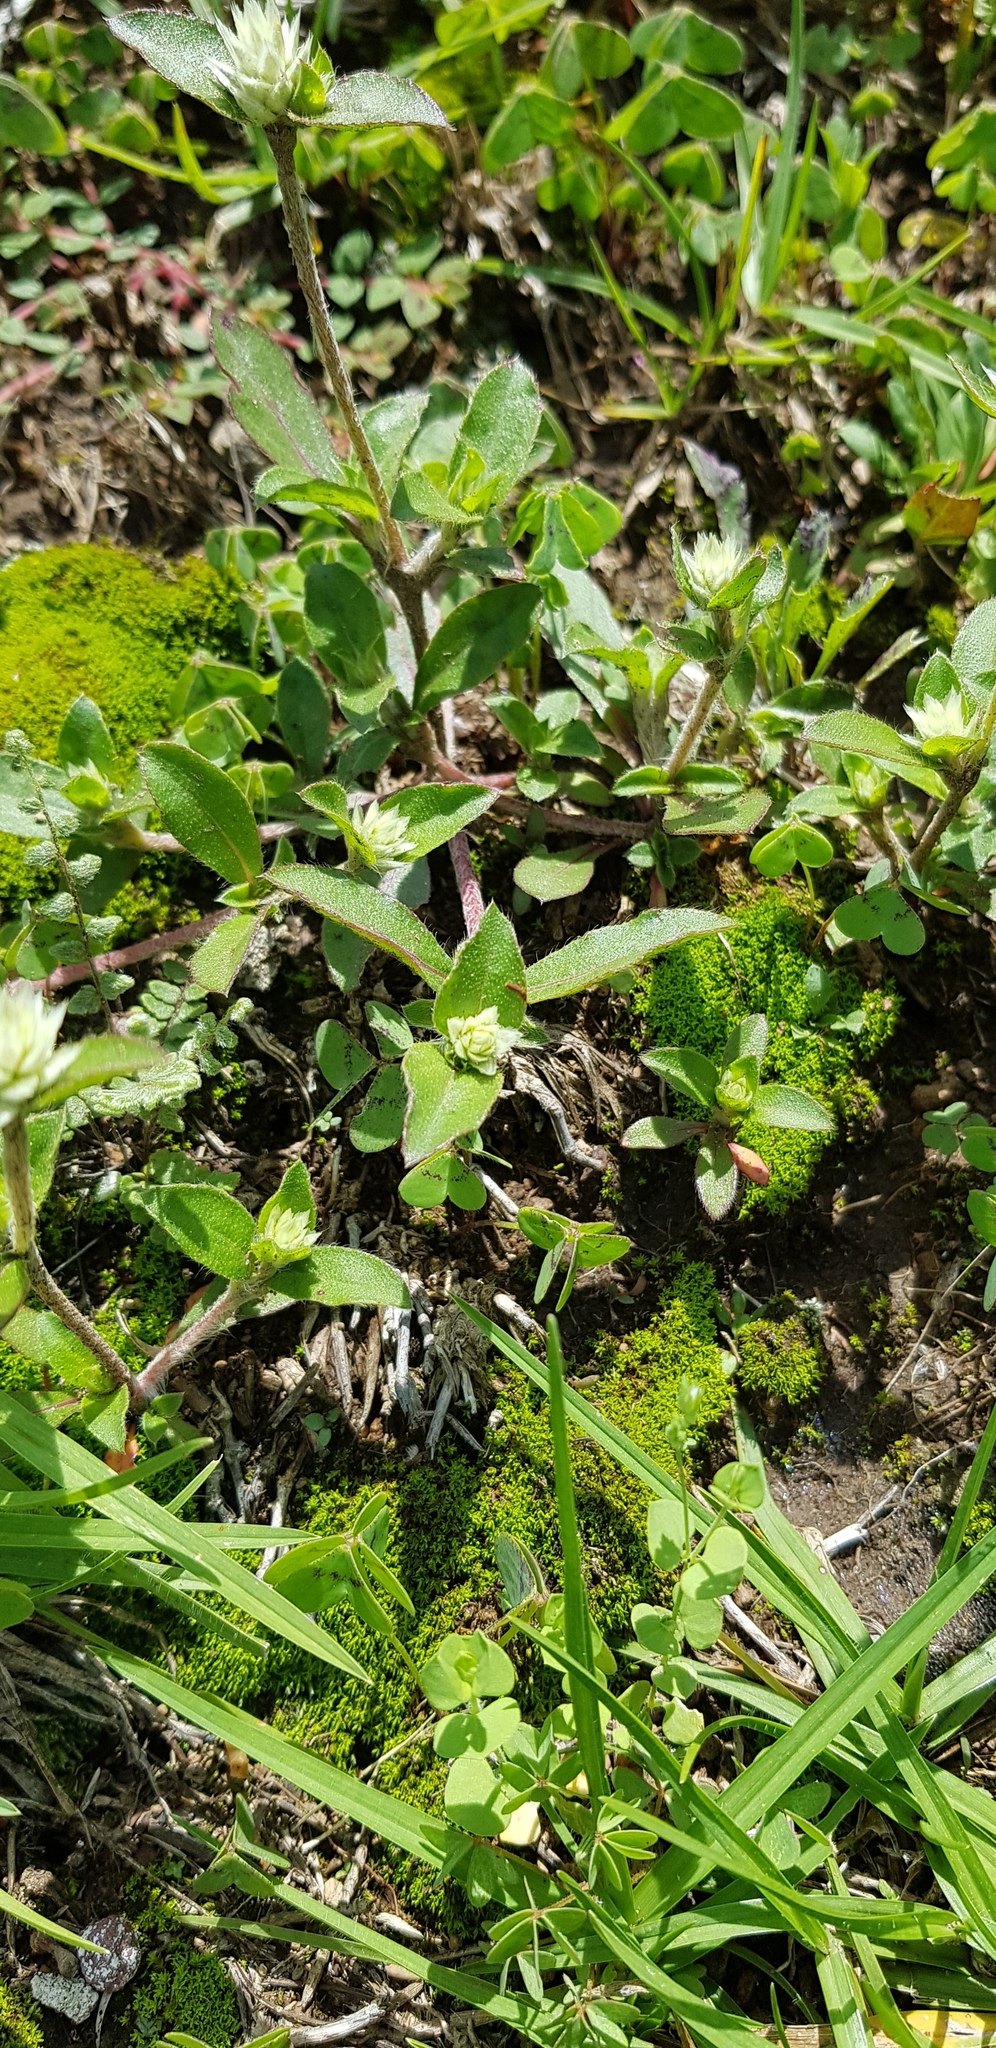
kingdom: Plantae
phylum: Tracheophyta
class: Magnoliopsida
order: Caryophyllales
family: Amaranthaceae
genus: Gomphrena
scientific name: Gomphrena serrata
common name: Arrasa con todo
